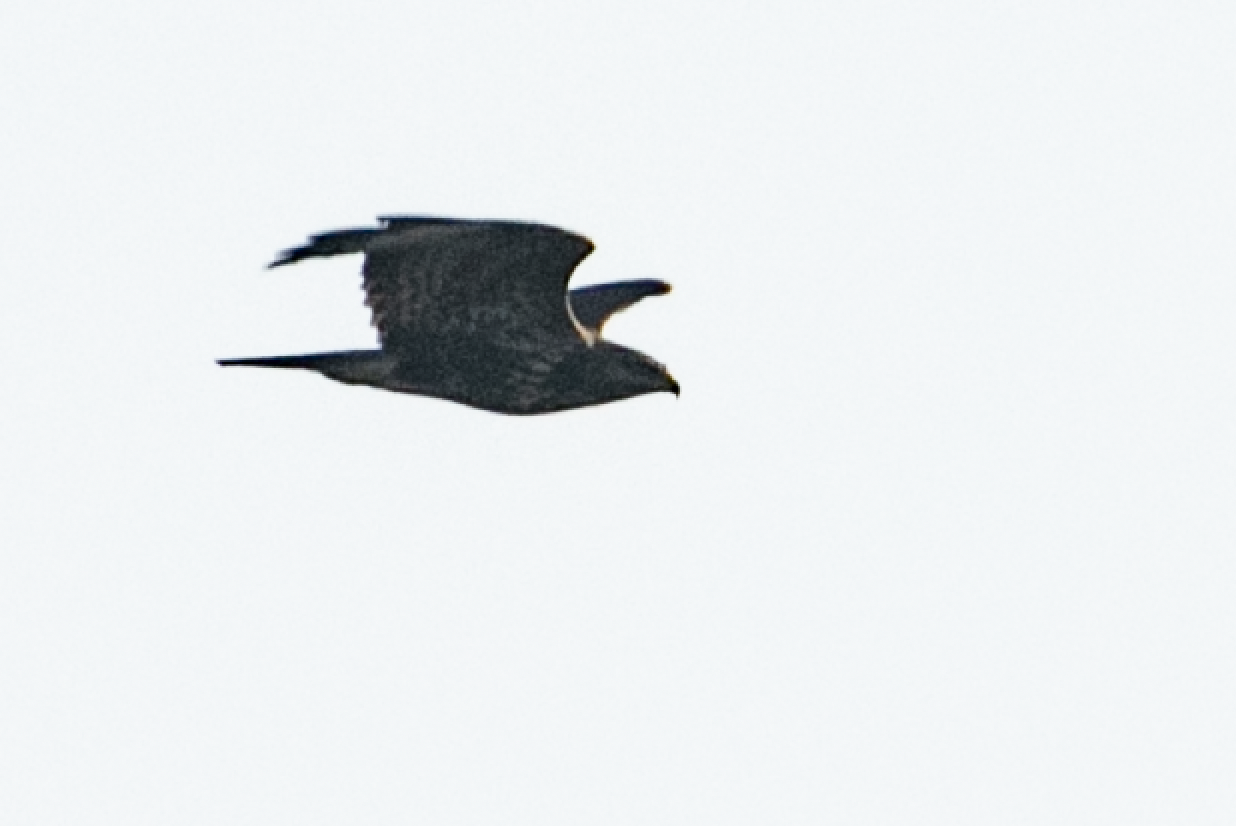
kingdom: Animalia
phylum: Chordata
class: Aves
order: Accipitriformes
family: Accipitridae
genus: Buteo
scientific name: Buteo buteo
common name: Common buzzard
